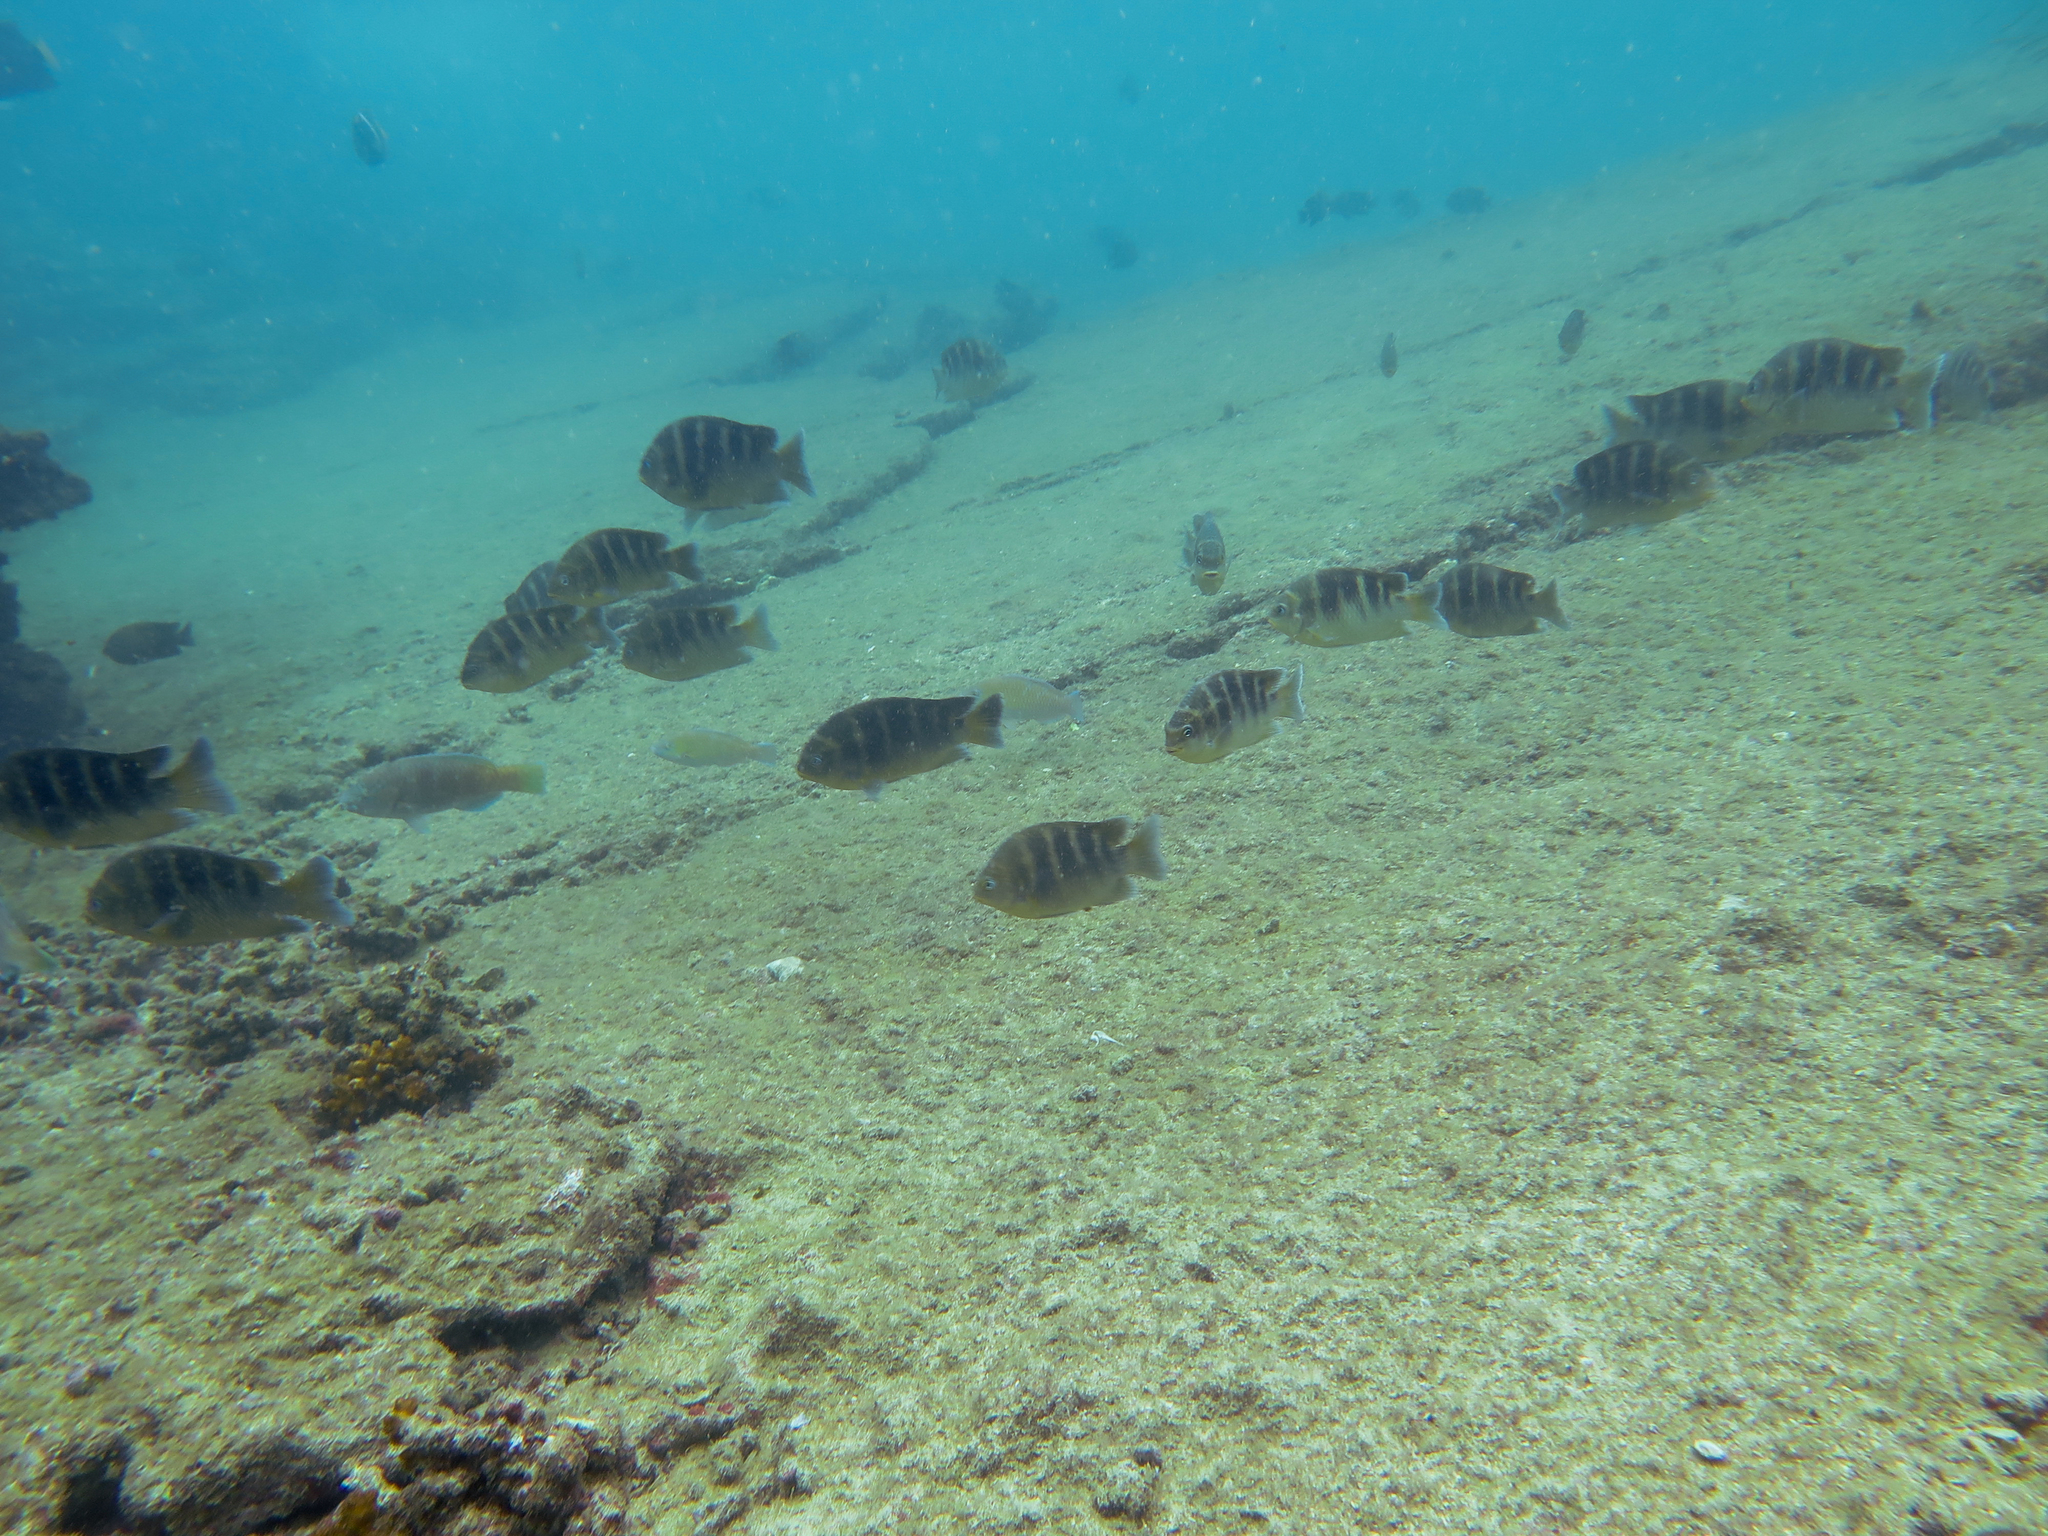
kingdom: Animalia
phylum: Chordata
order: Perciformes
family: Pomacentridae
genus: Abudefduf
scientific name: Abudefduf concolor
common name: Dusky seargent
